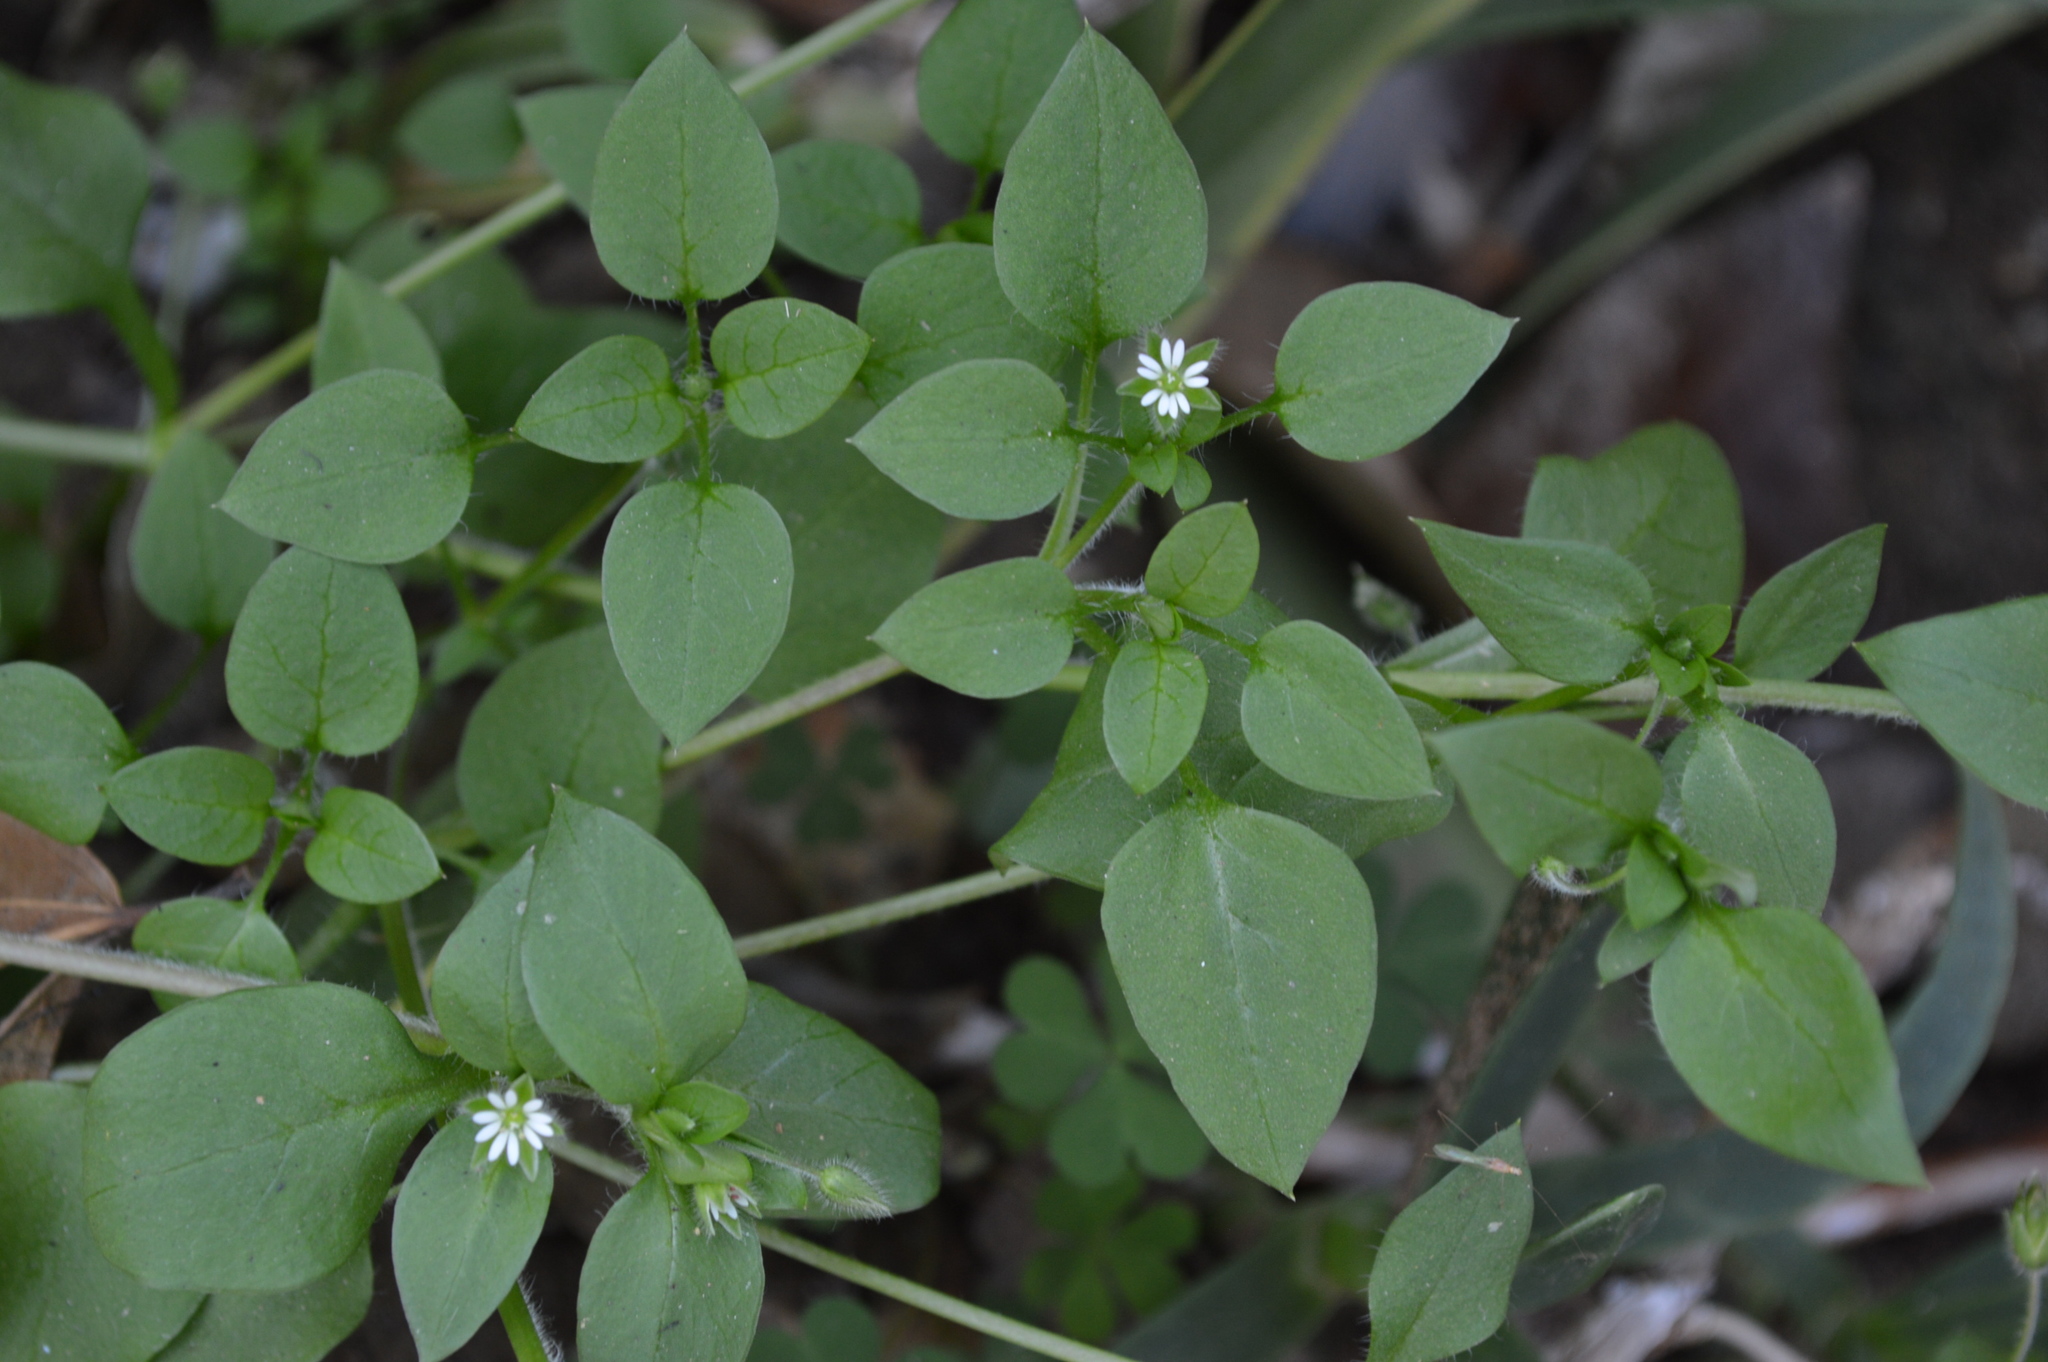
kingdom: Plantae
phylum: Tracheophyta
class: Magnoliopsida
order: Caryophyllales
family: Caryophyllaceae
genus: Stellaria
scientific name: Stellaria media
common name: Common chickweed
